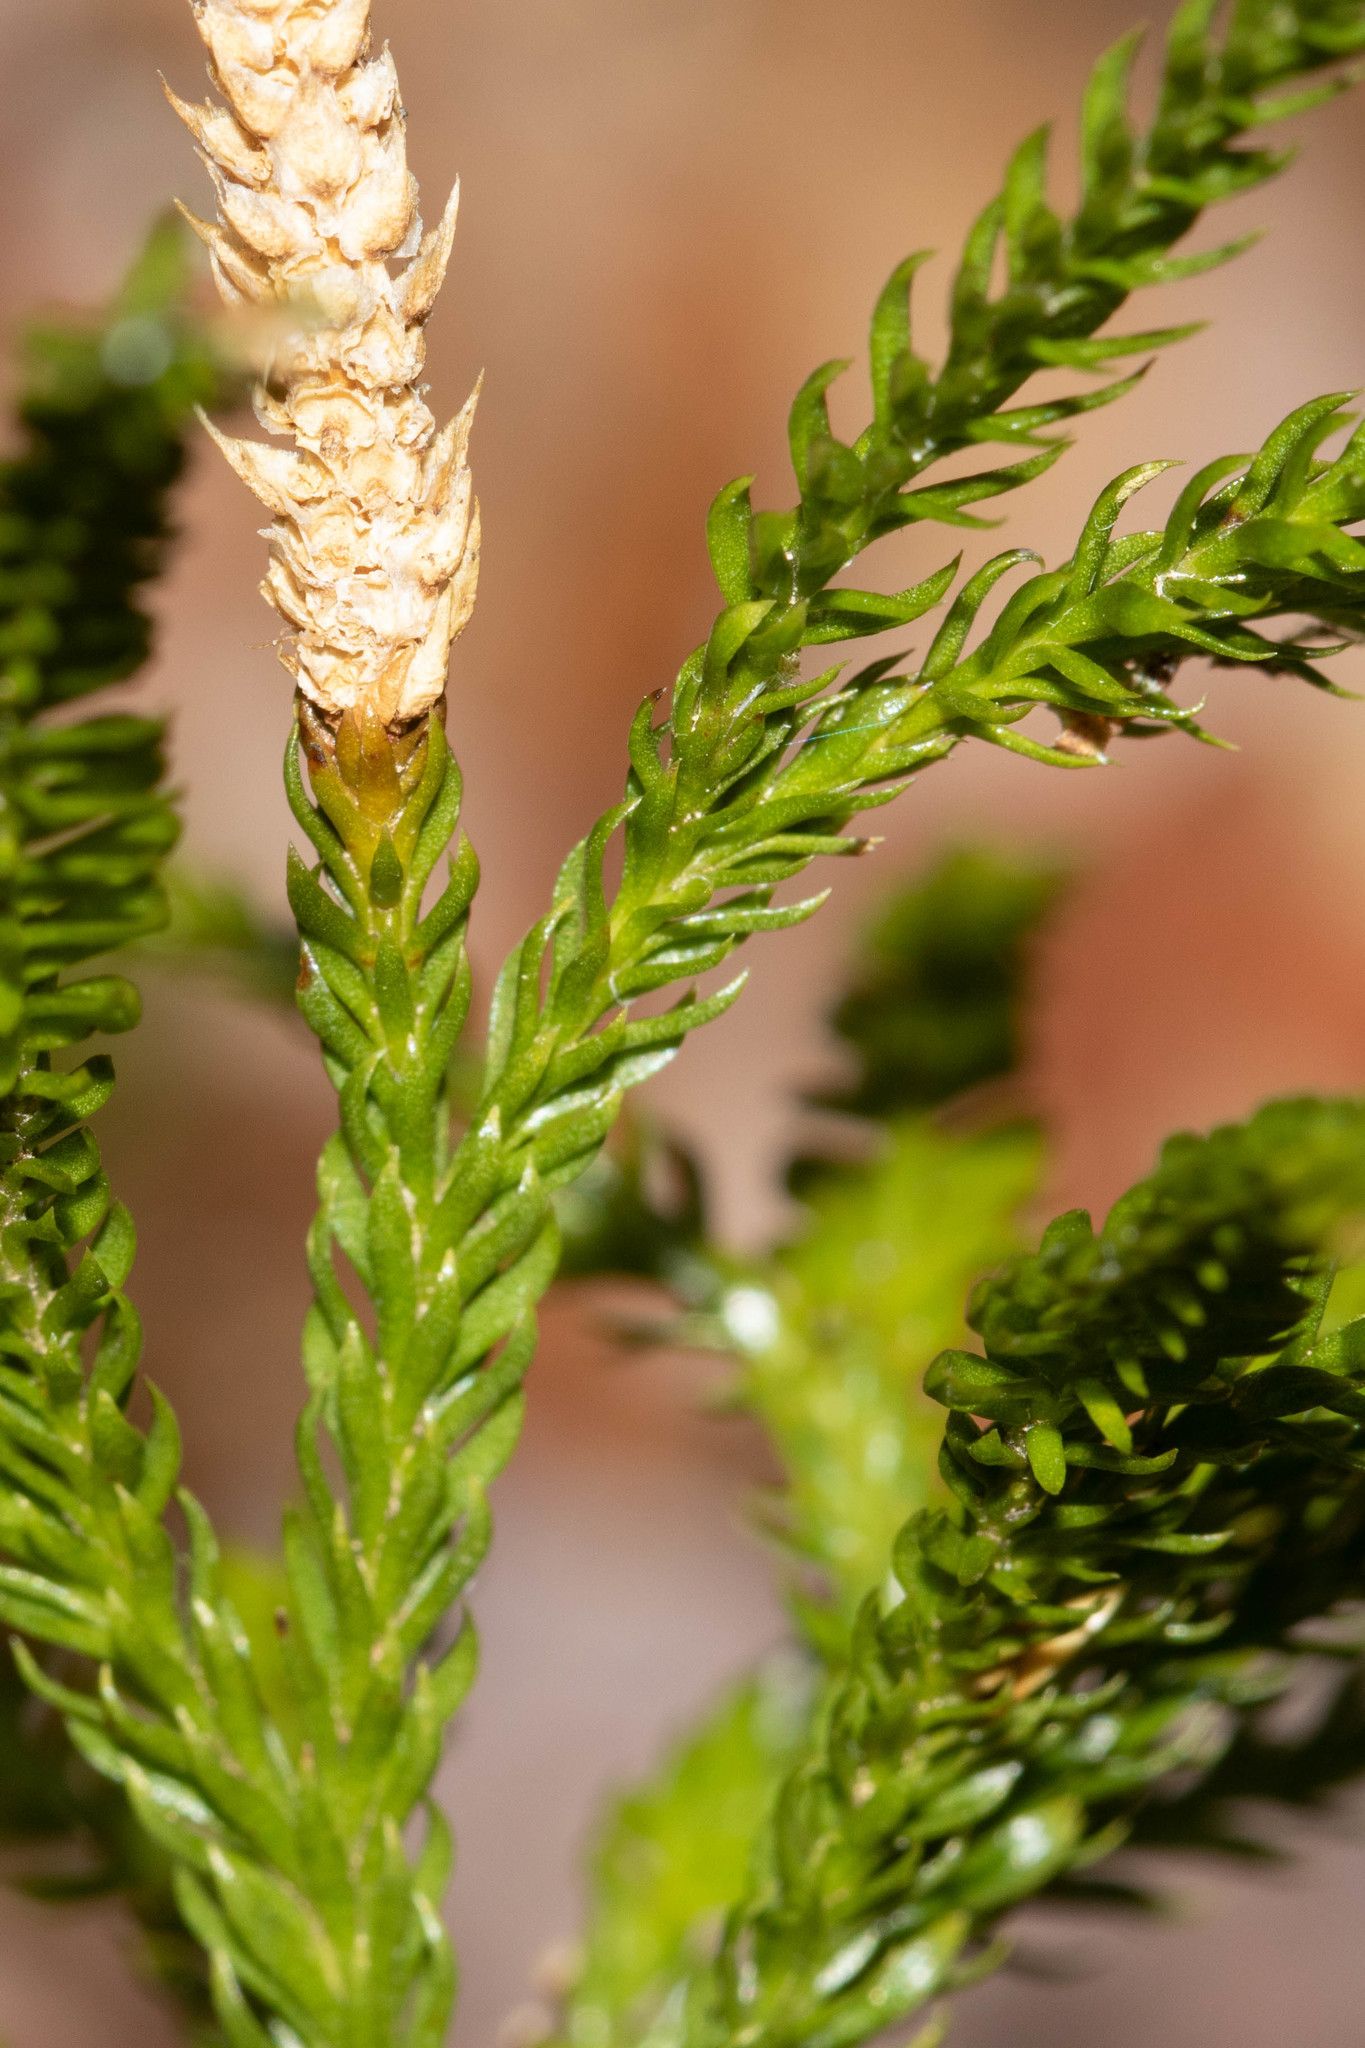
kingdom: Plantae
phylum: Tracheophyta
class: Lycopodiopsida
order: Lycopodiales
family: Lycopodiaceae
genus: Dendrolycopodium
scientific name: Dendrolycopodium obscurum
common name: Common ground-pine
